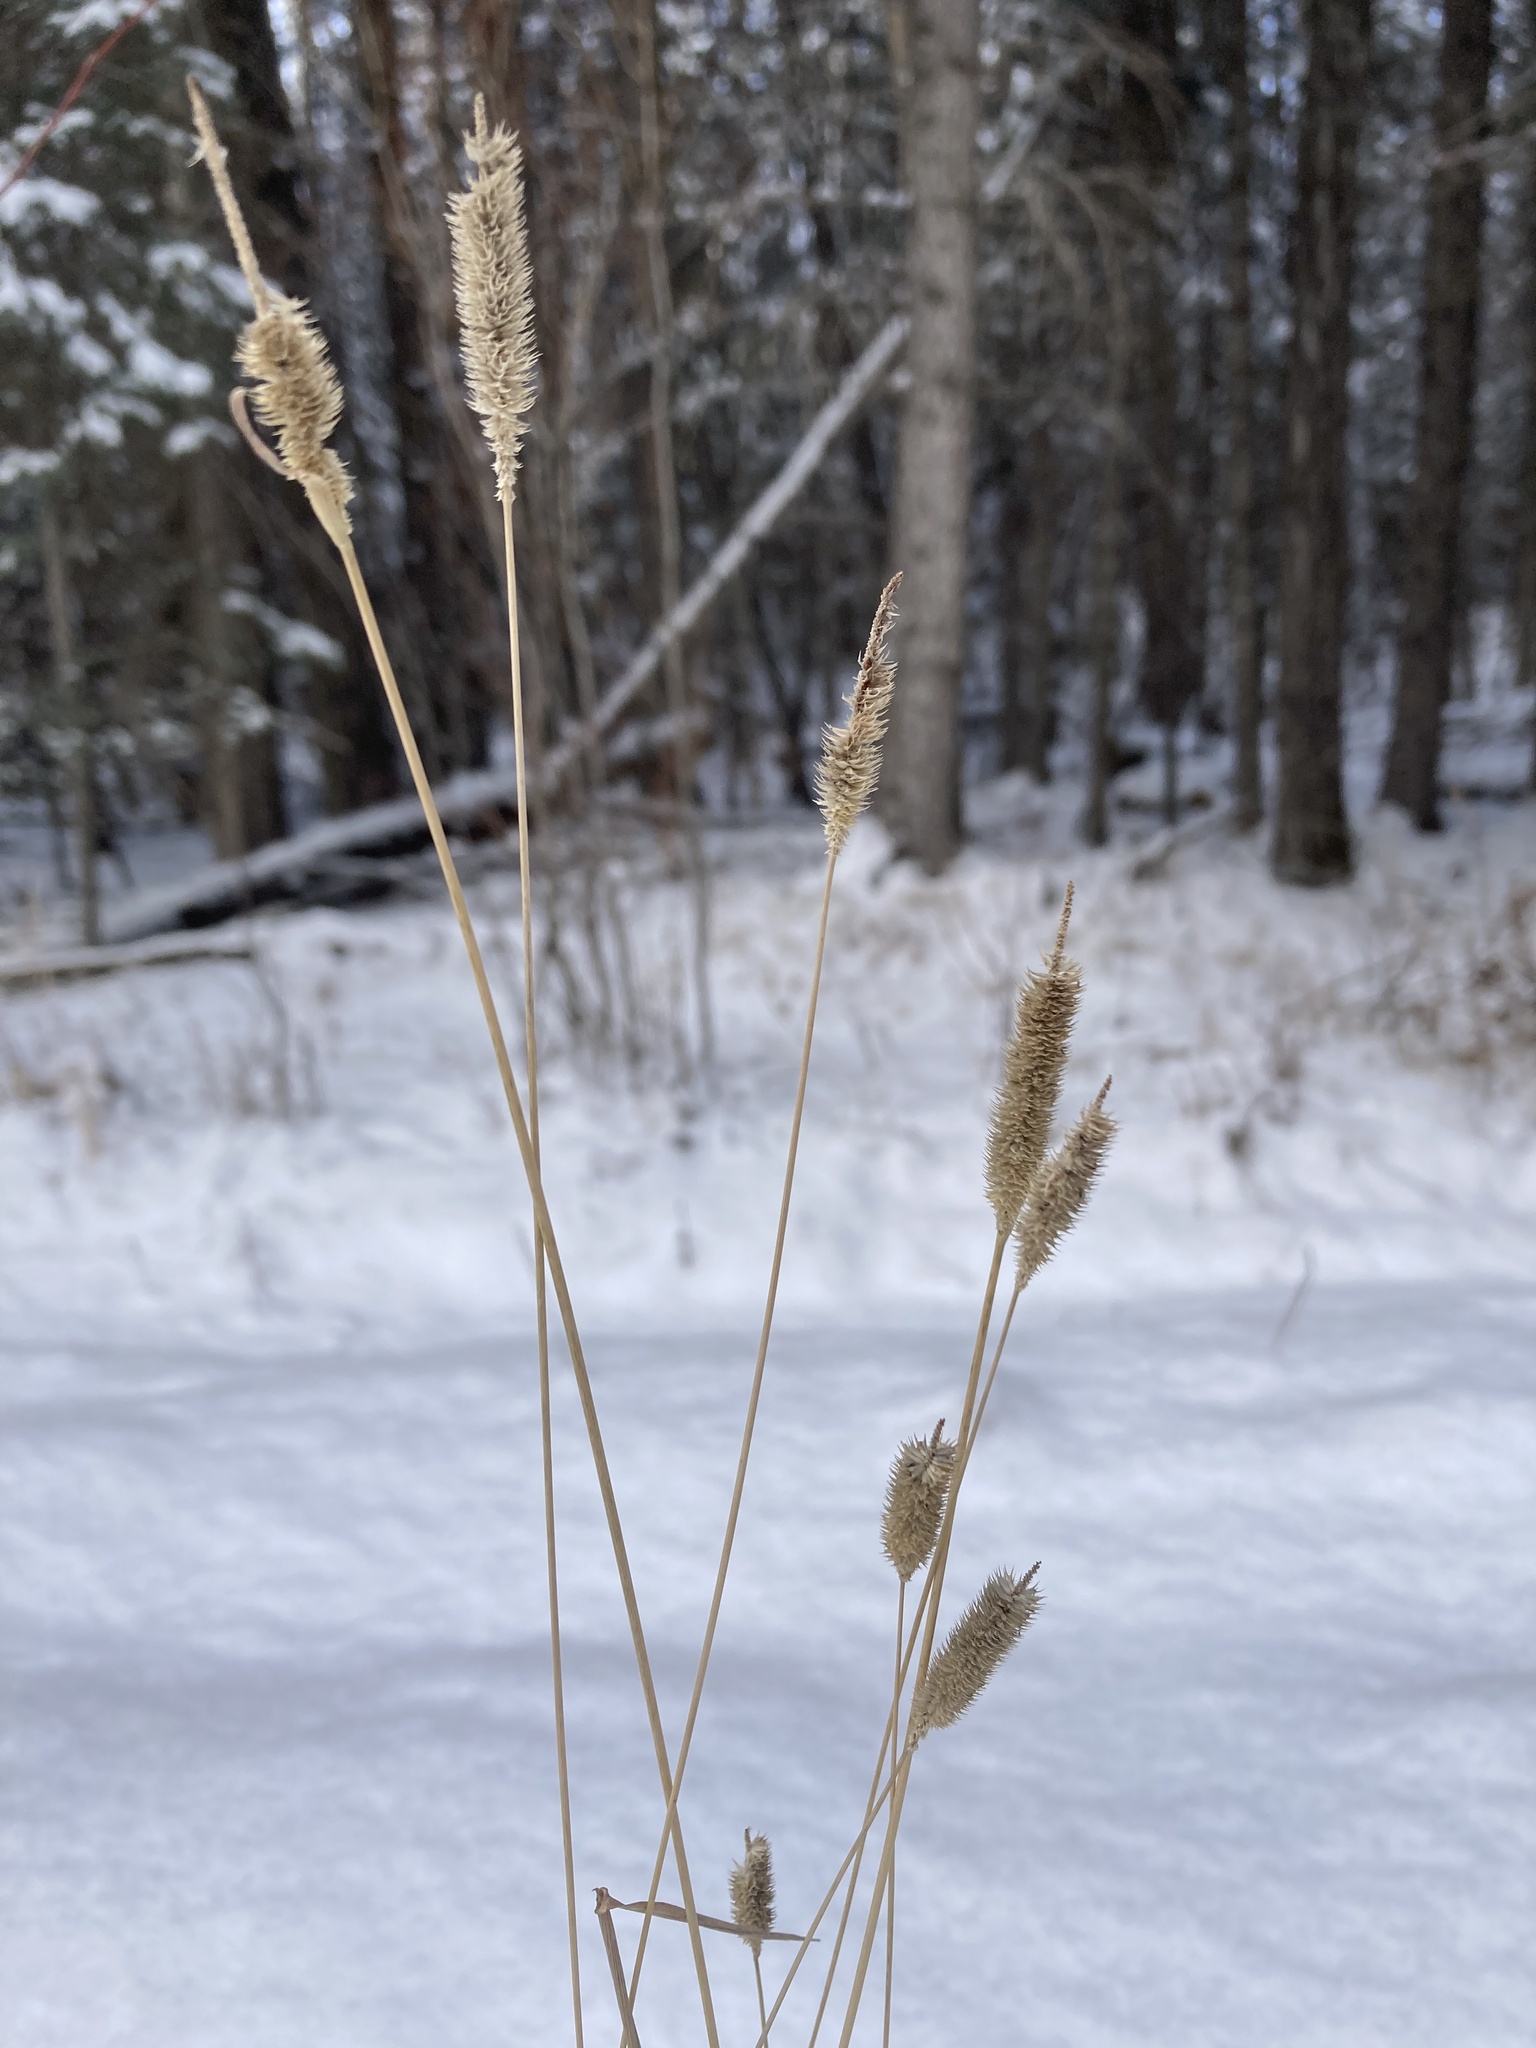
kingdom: Plantae
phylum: Tracheophyta
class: Liliopsida
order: Poales
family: Poaceae
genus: Phleum
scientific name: Phleum pratense
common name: Timothy grass
